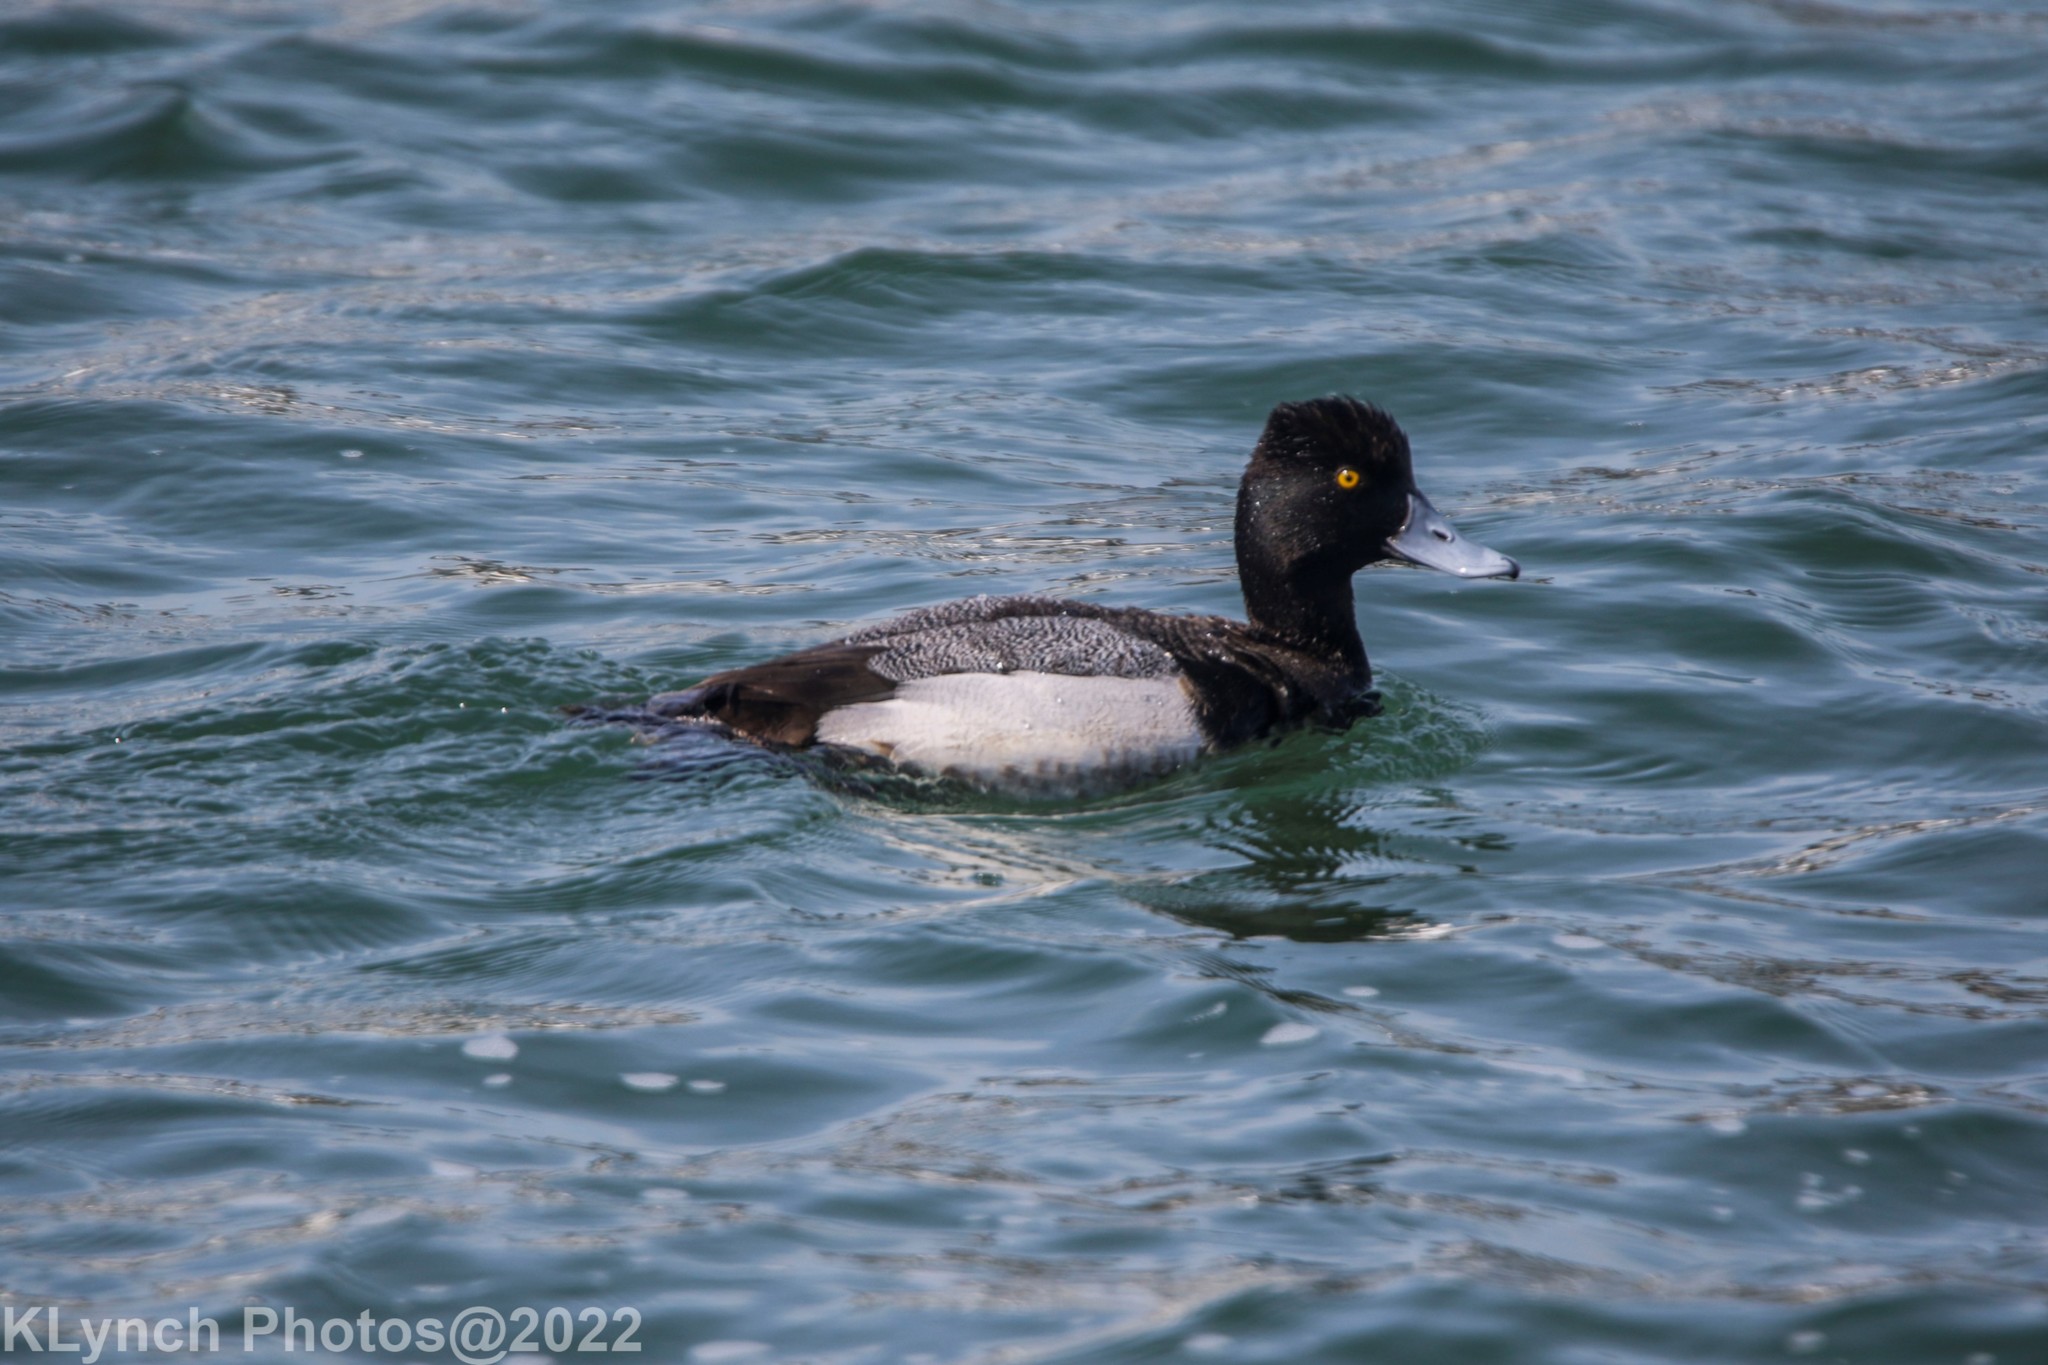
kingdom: Animalia
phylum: Chordata
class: Aves
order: Anseriformes
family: Anatidae
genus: Aythya
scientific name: Aythya affinis
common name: Lesser scaup
